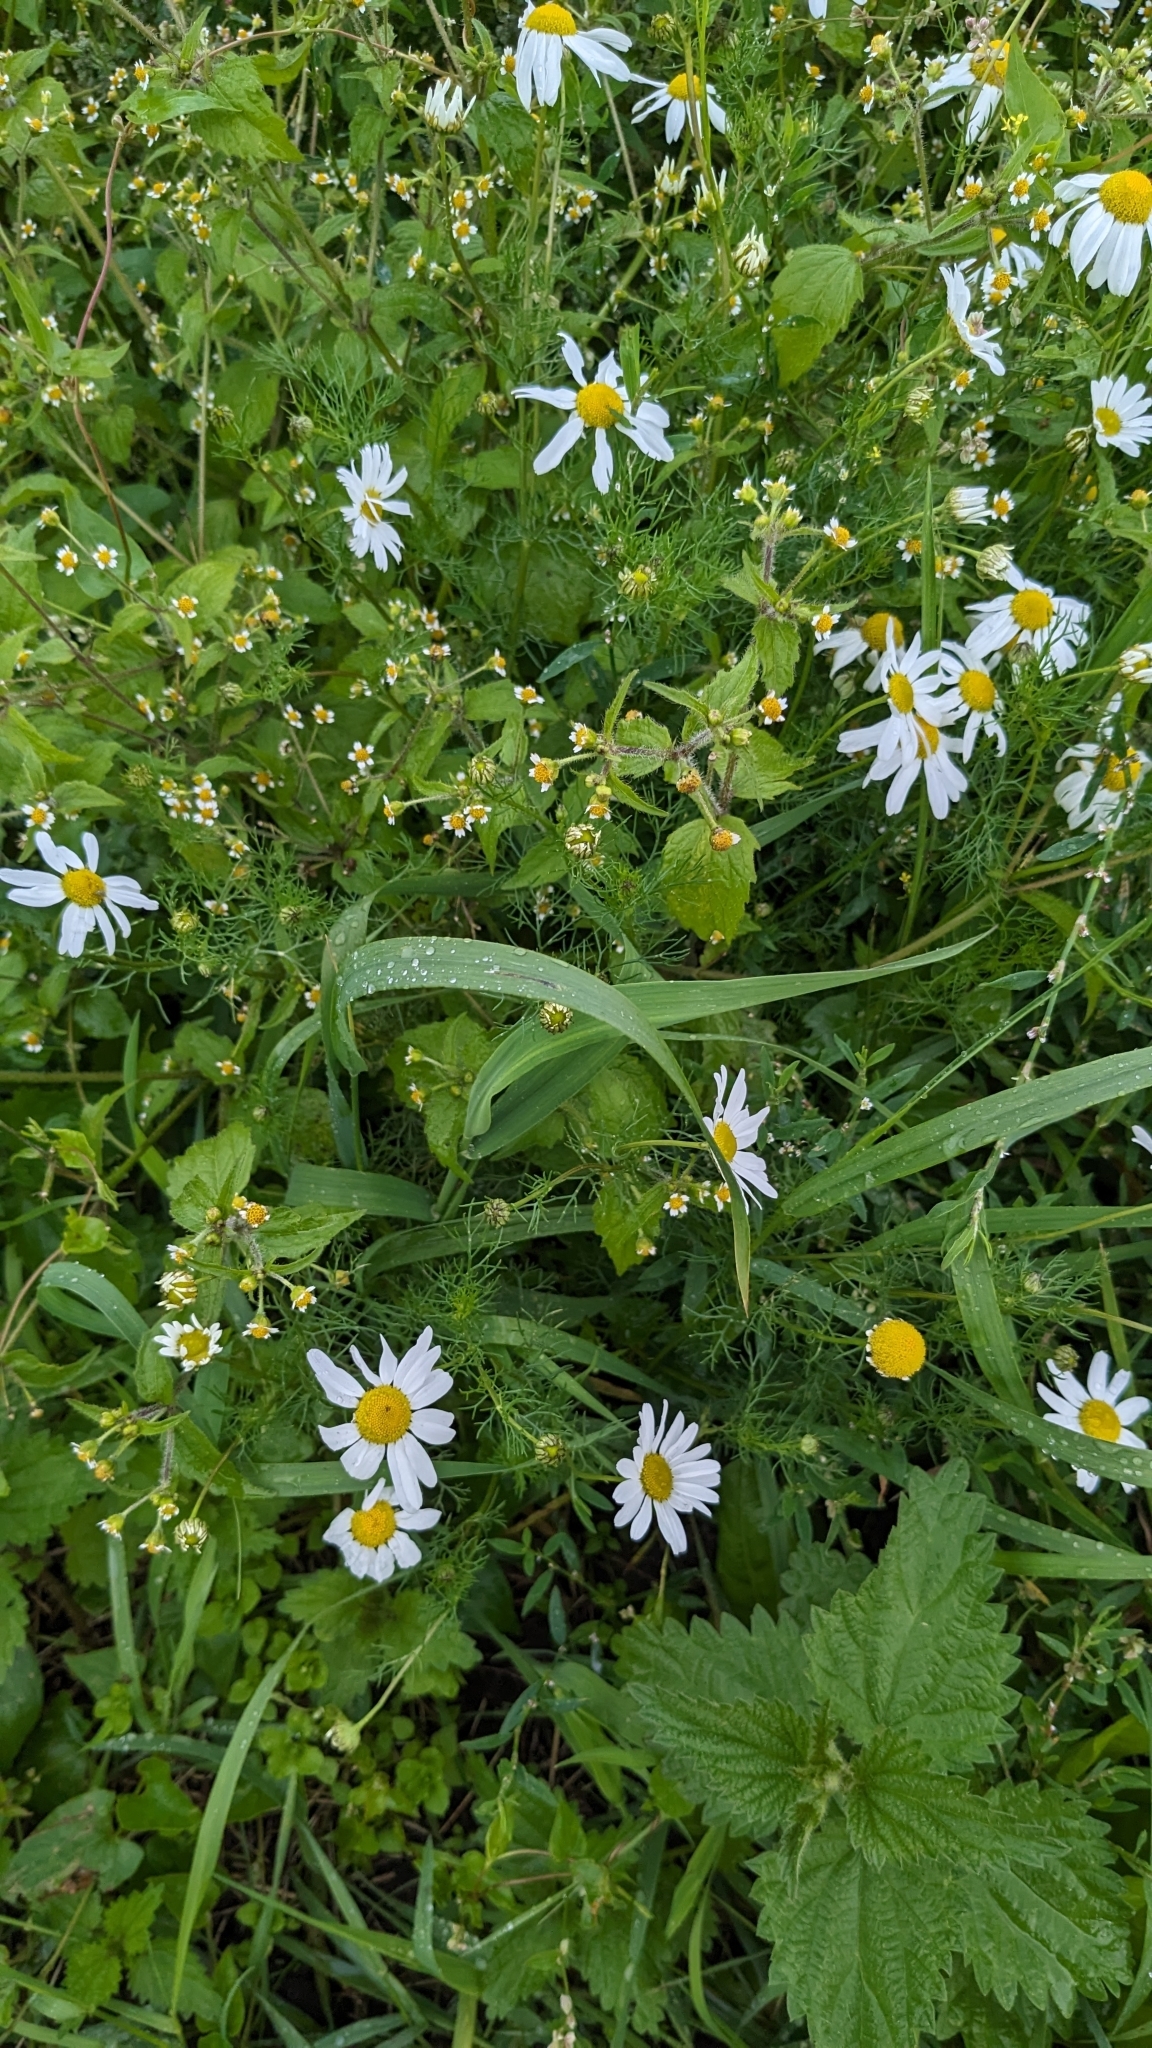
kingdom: Plantae
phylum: Tracheophyta
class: Magnoliopsida
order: Asterales
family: Asteraceae
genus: Tripleurospermum
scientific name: Tripleurospermum inodorum
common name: Scentless mayweed
